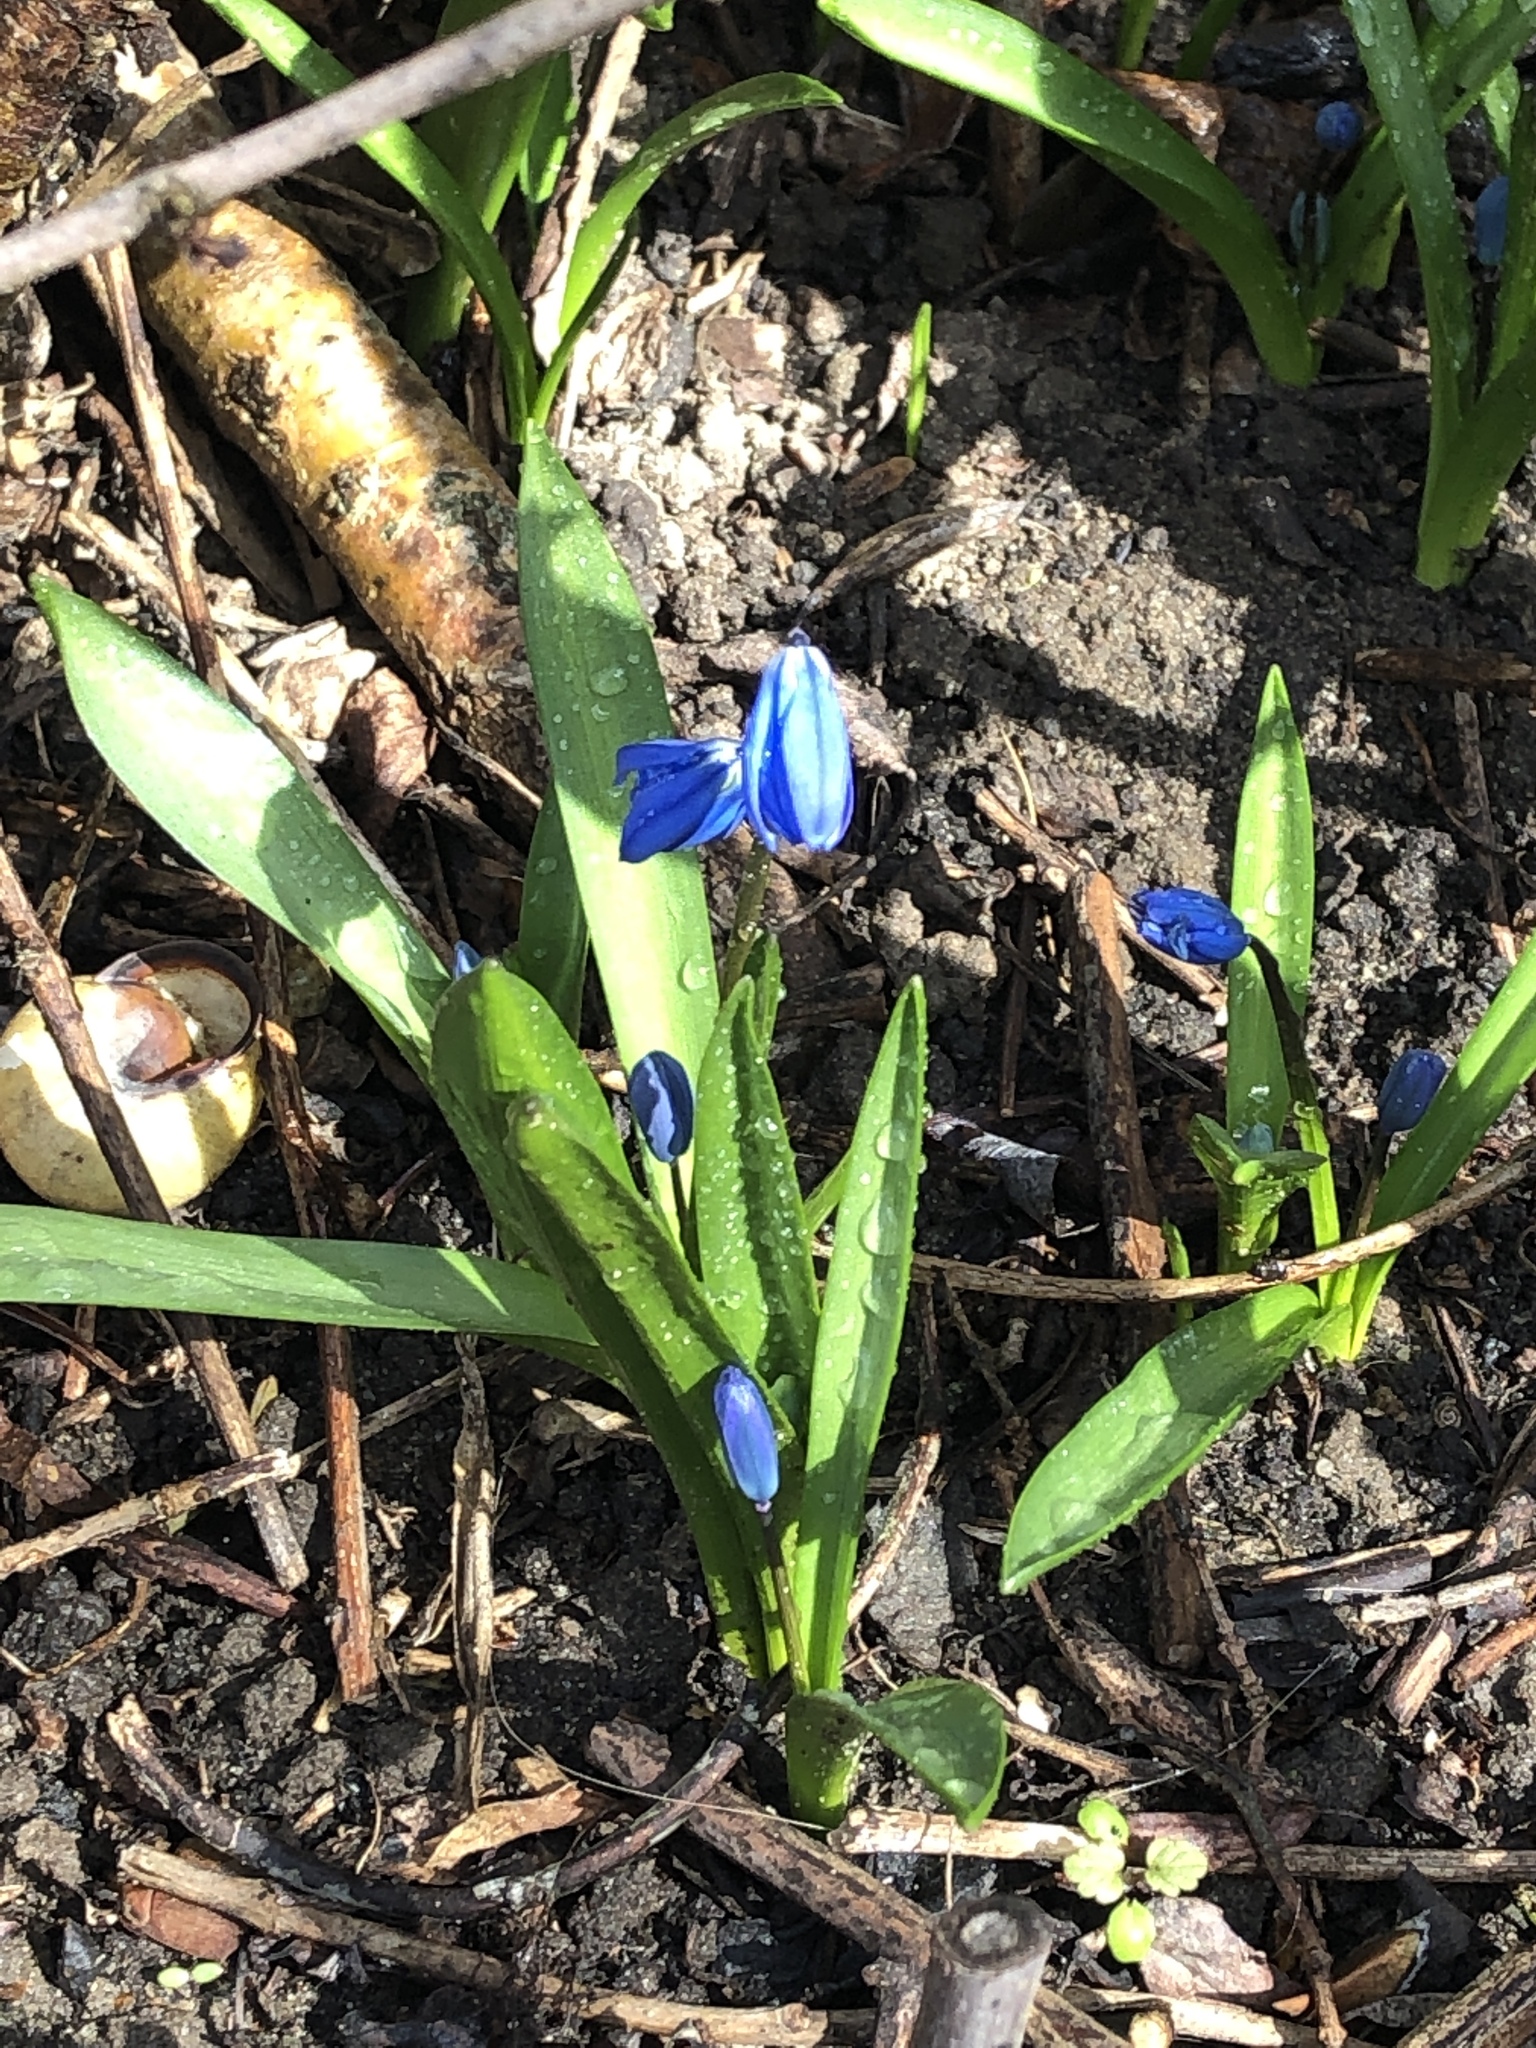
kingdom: Plantae
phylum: Tracheophyta
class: Liliopsida
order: Asparagales
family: Asparagaceae
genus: Scilla
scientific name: Scilla siberica
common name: Siberian squill
